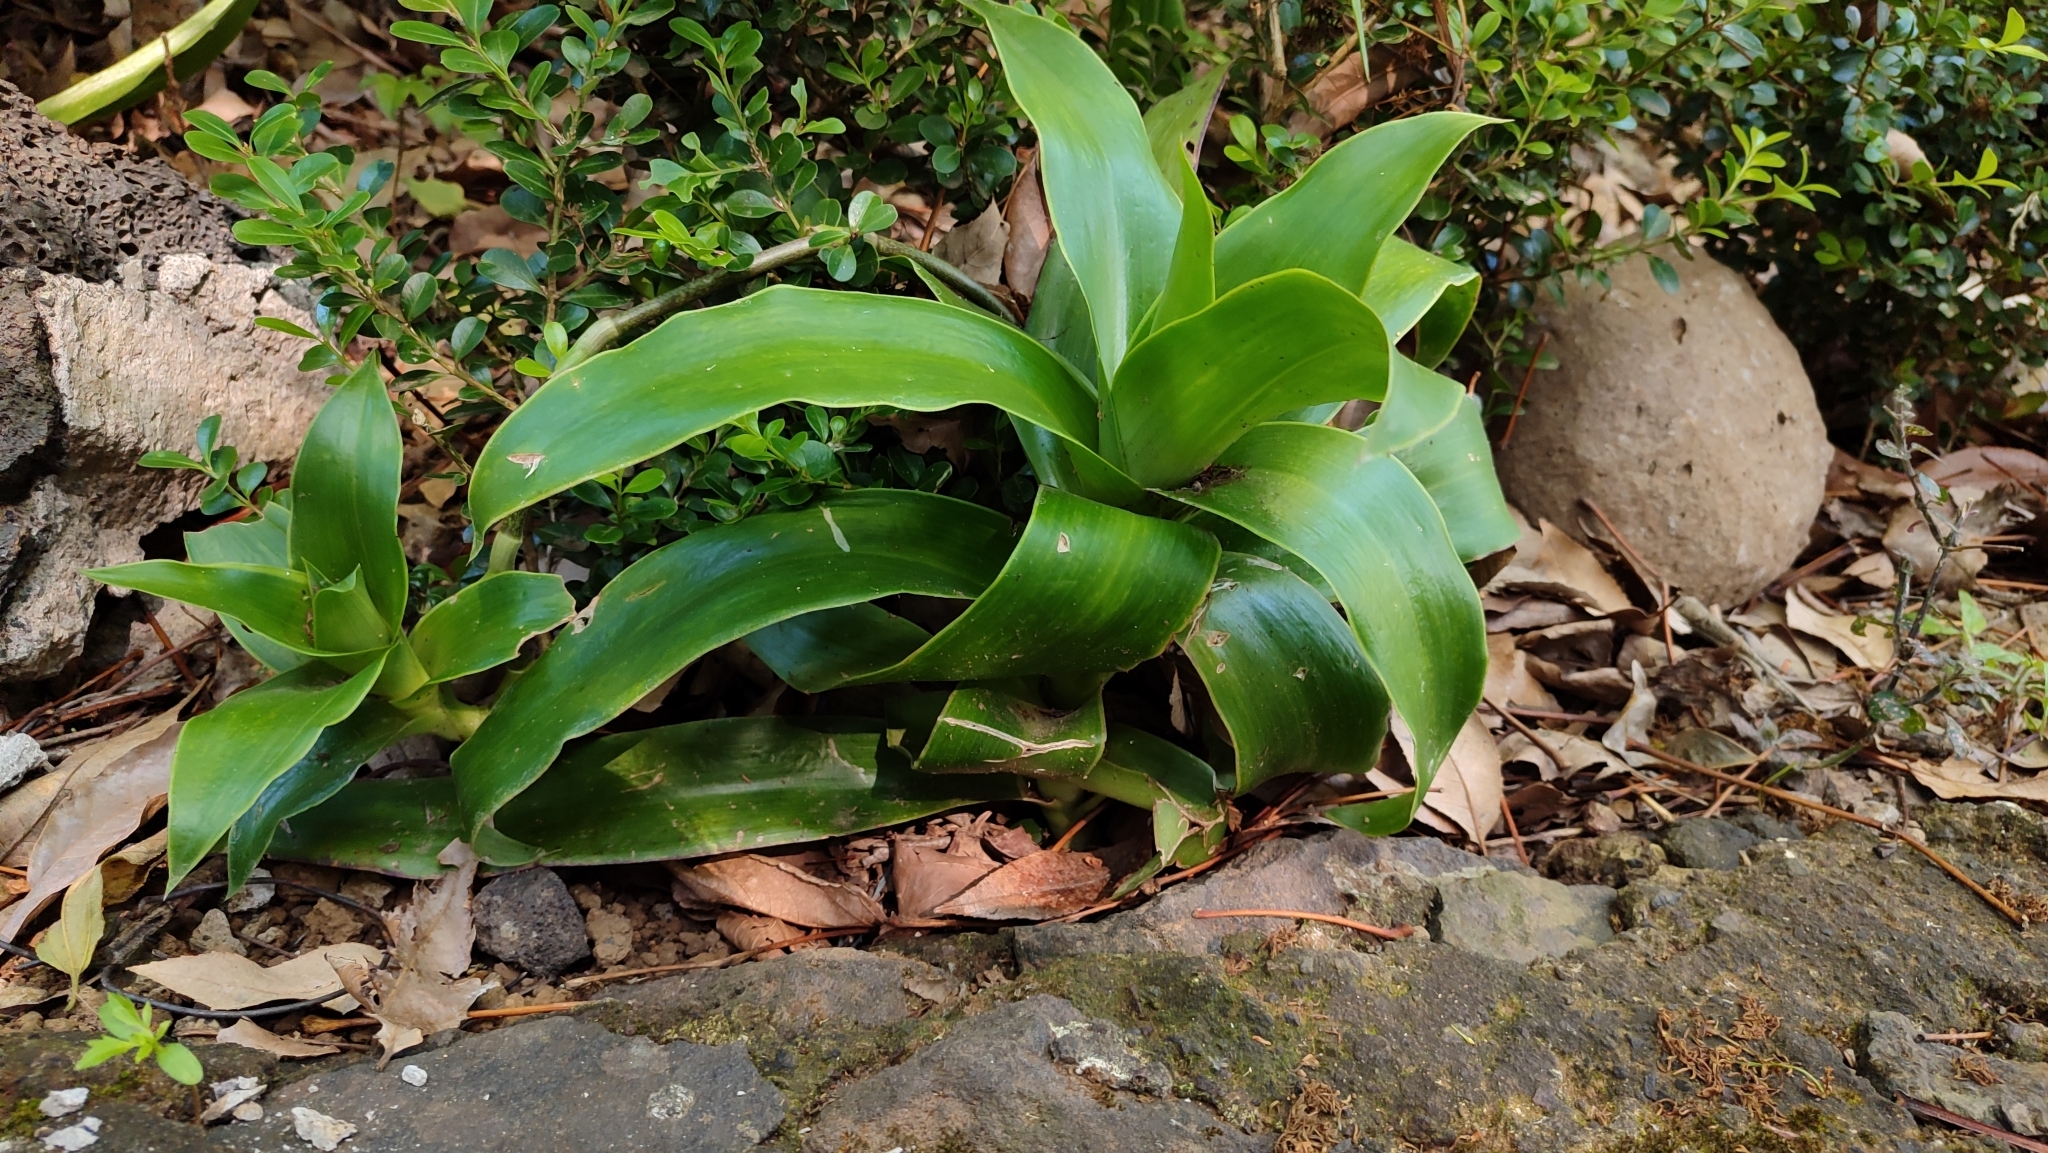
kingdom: Plantae
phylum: Tracheophyta
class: Liliopsida
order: Commelinales
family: Commelinaceae
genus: Callisia
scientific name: Callisia fragrans
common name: Basketplant
